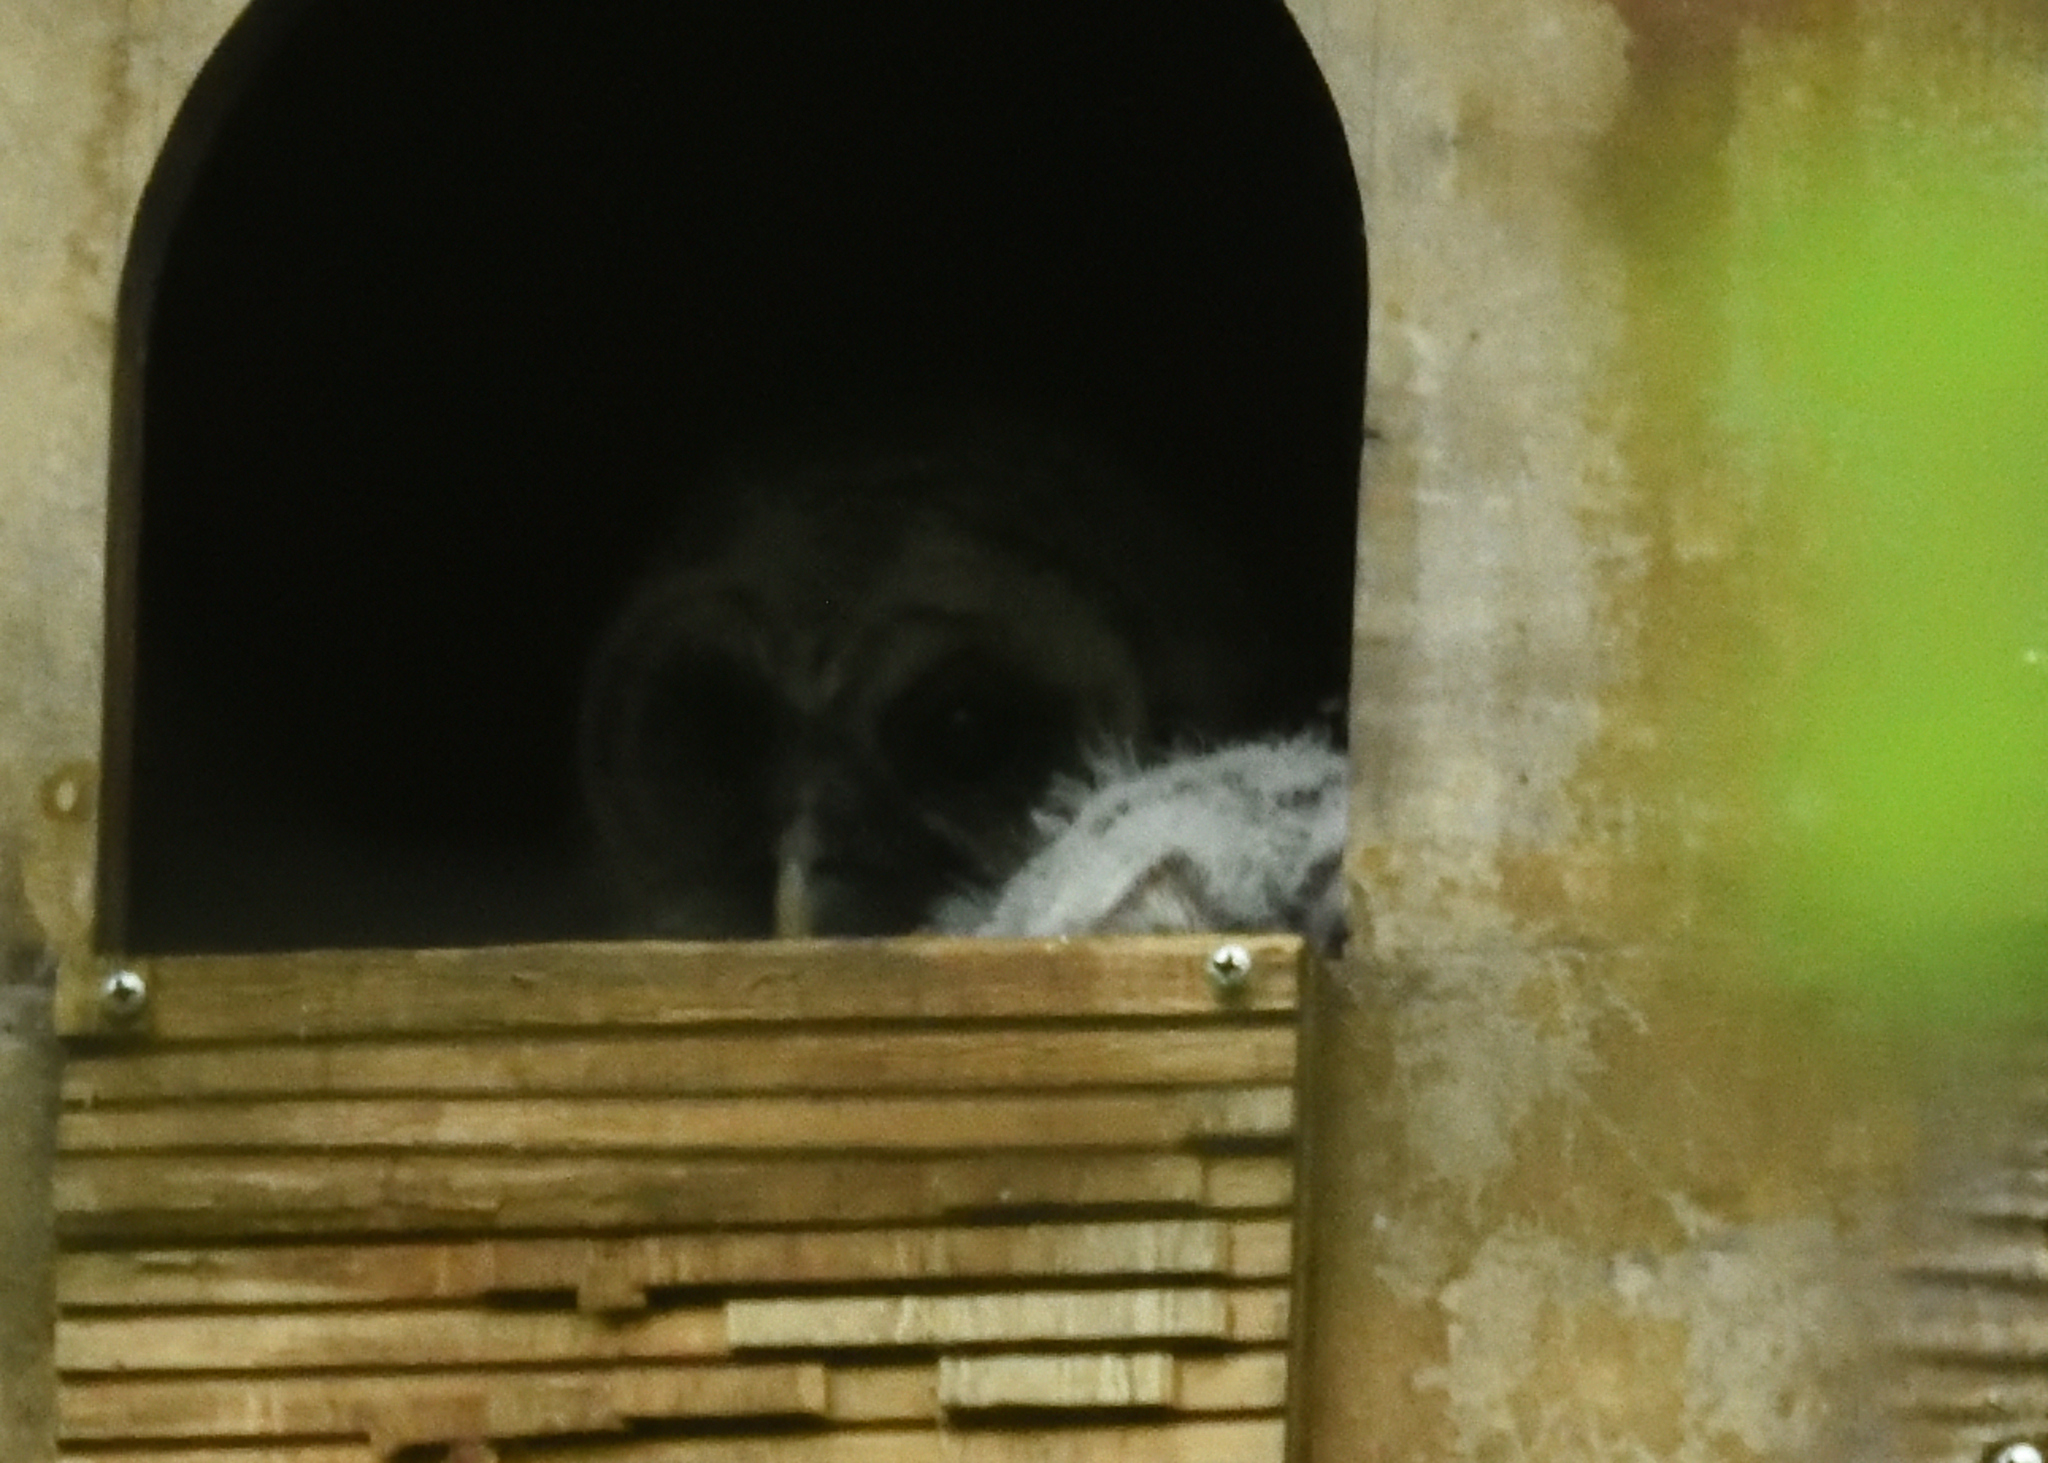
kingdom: Animalia
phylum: Chordata
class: Aves
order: Strigiformes
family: Strigidae
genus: Strix
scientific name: Strix varia
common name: Barred owl
